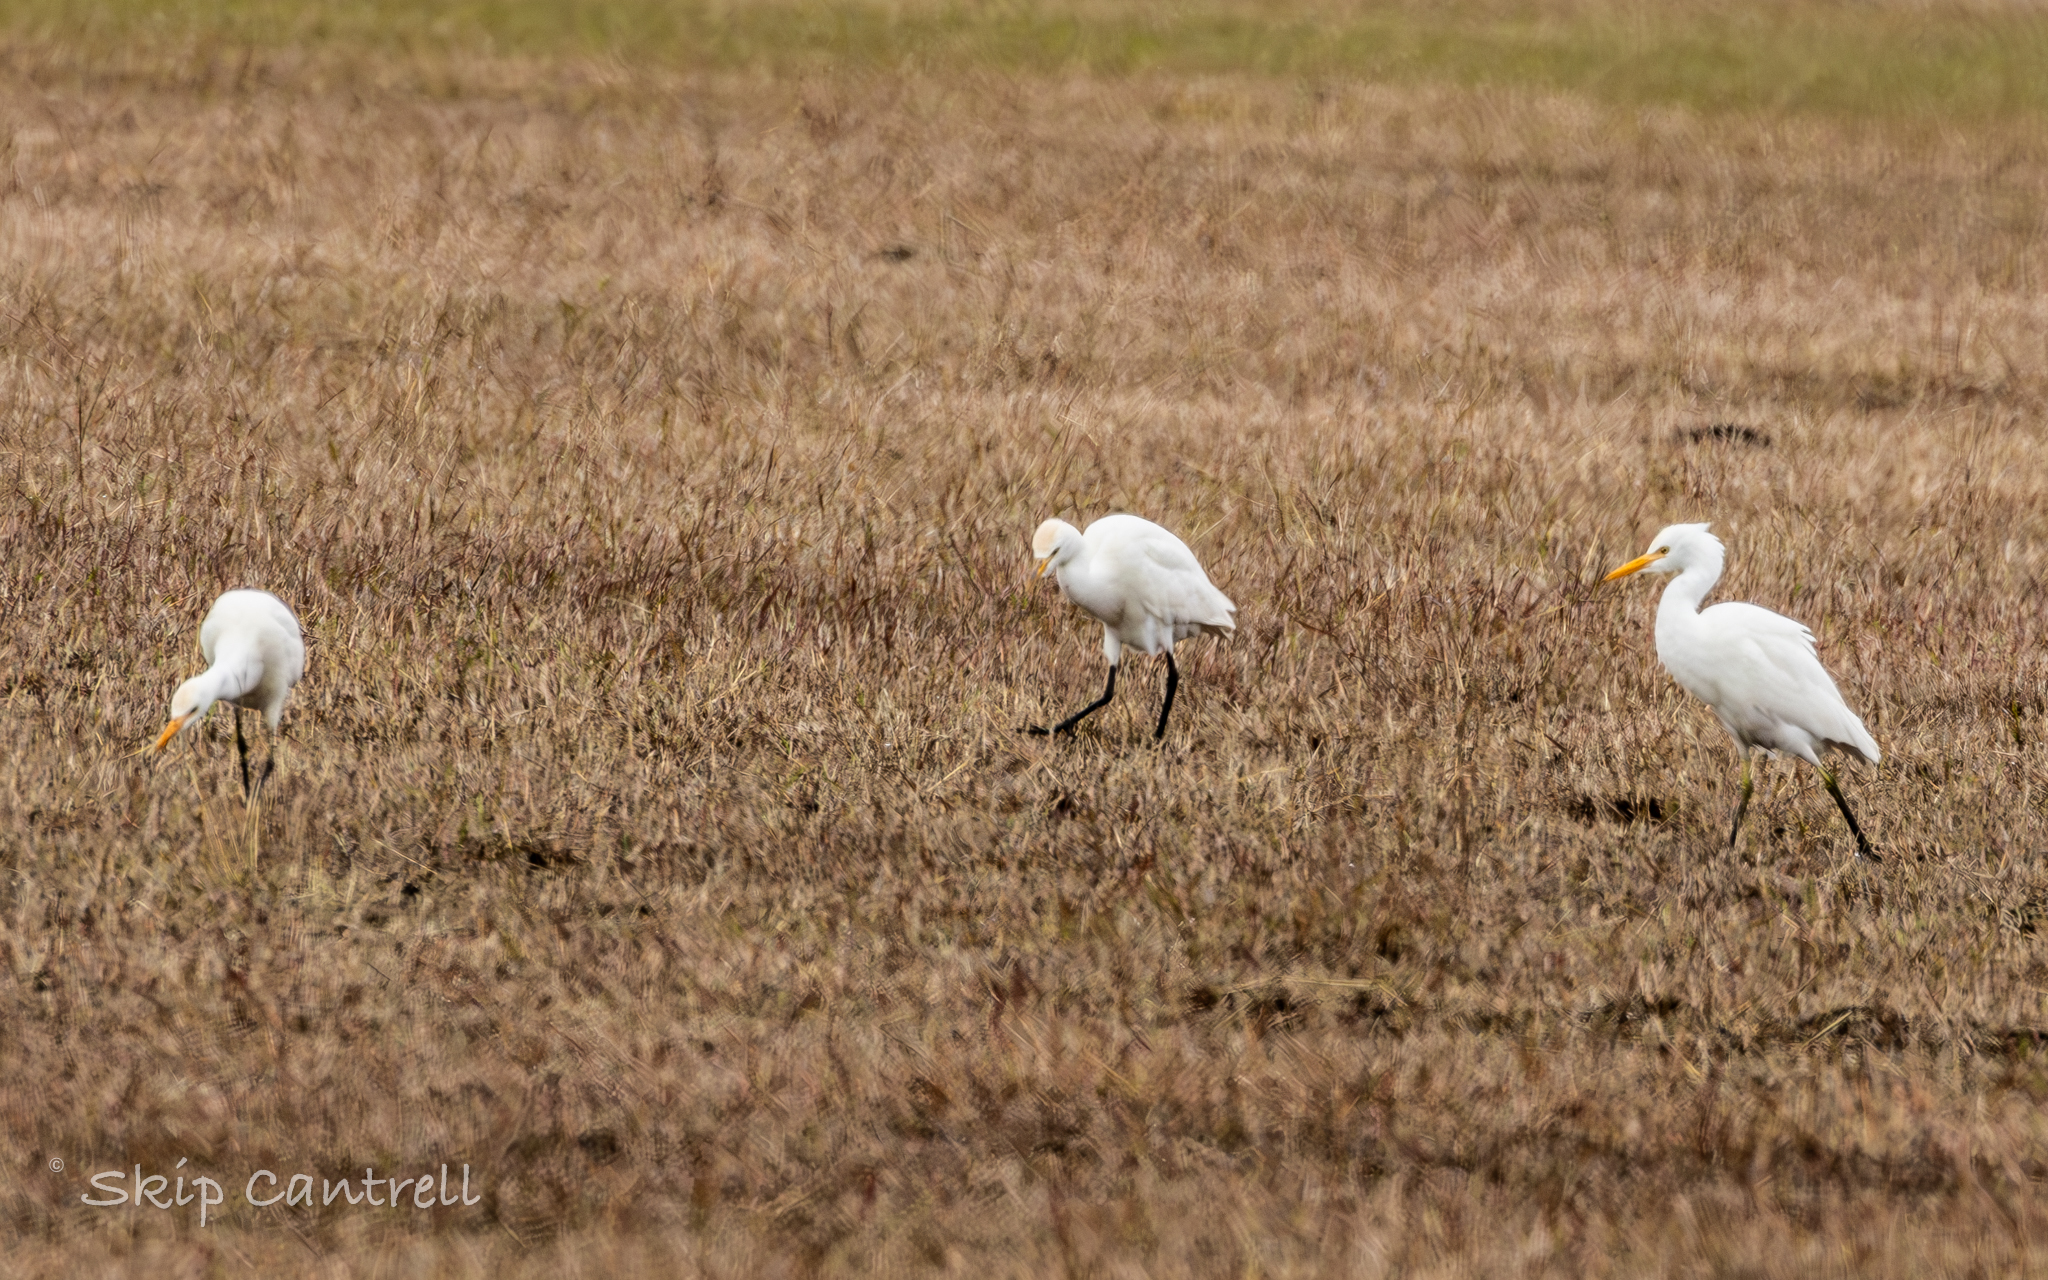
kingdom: Animalia
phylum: Chordata
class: Aves
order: Pelecaniformes
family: Ardeidae
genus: Bubulcus
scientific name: Bubulcus ibis
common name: Cattle egret
